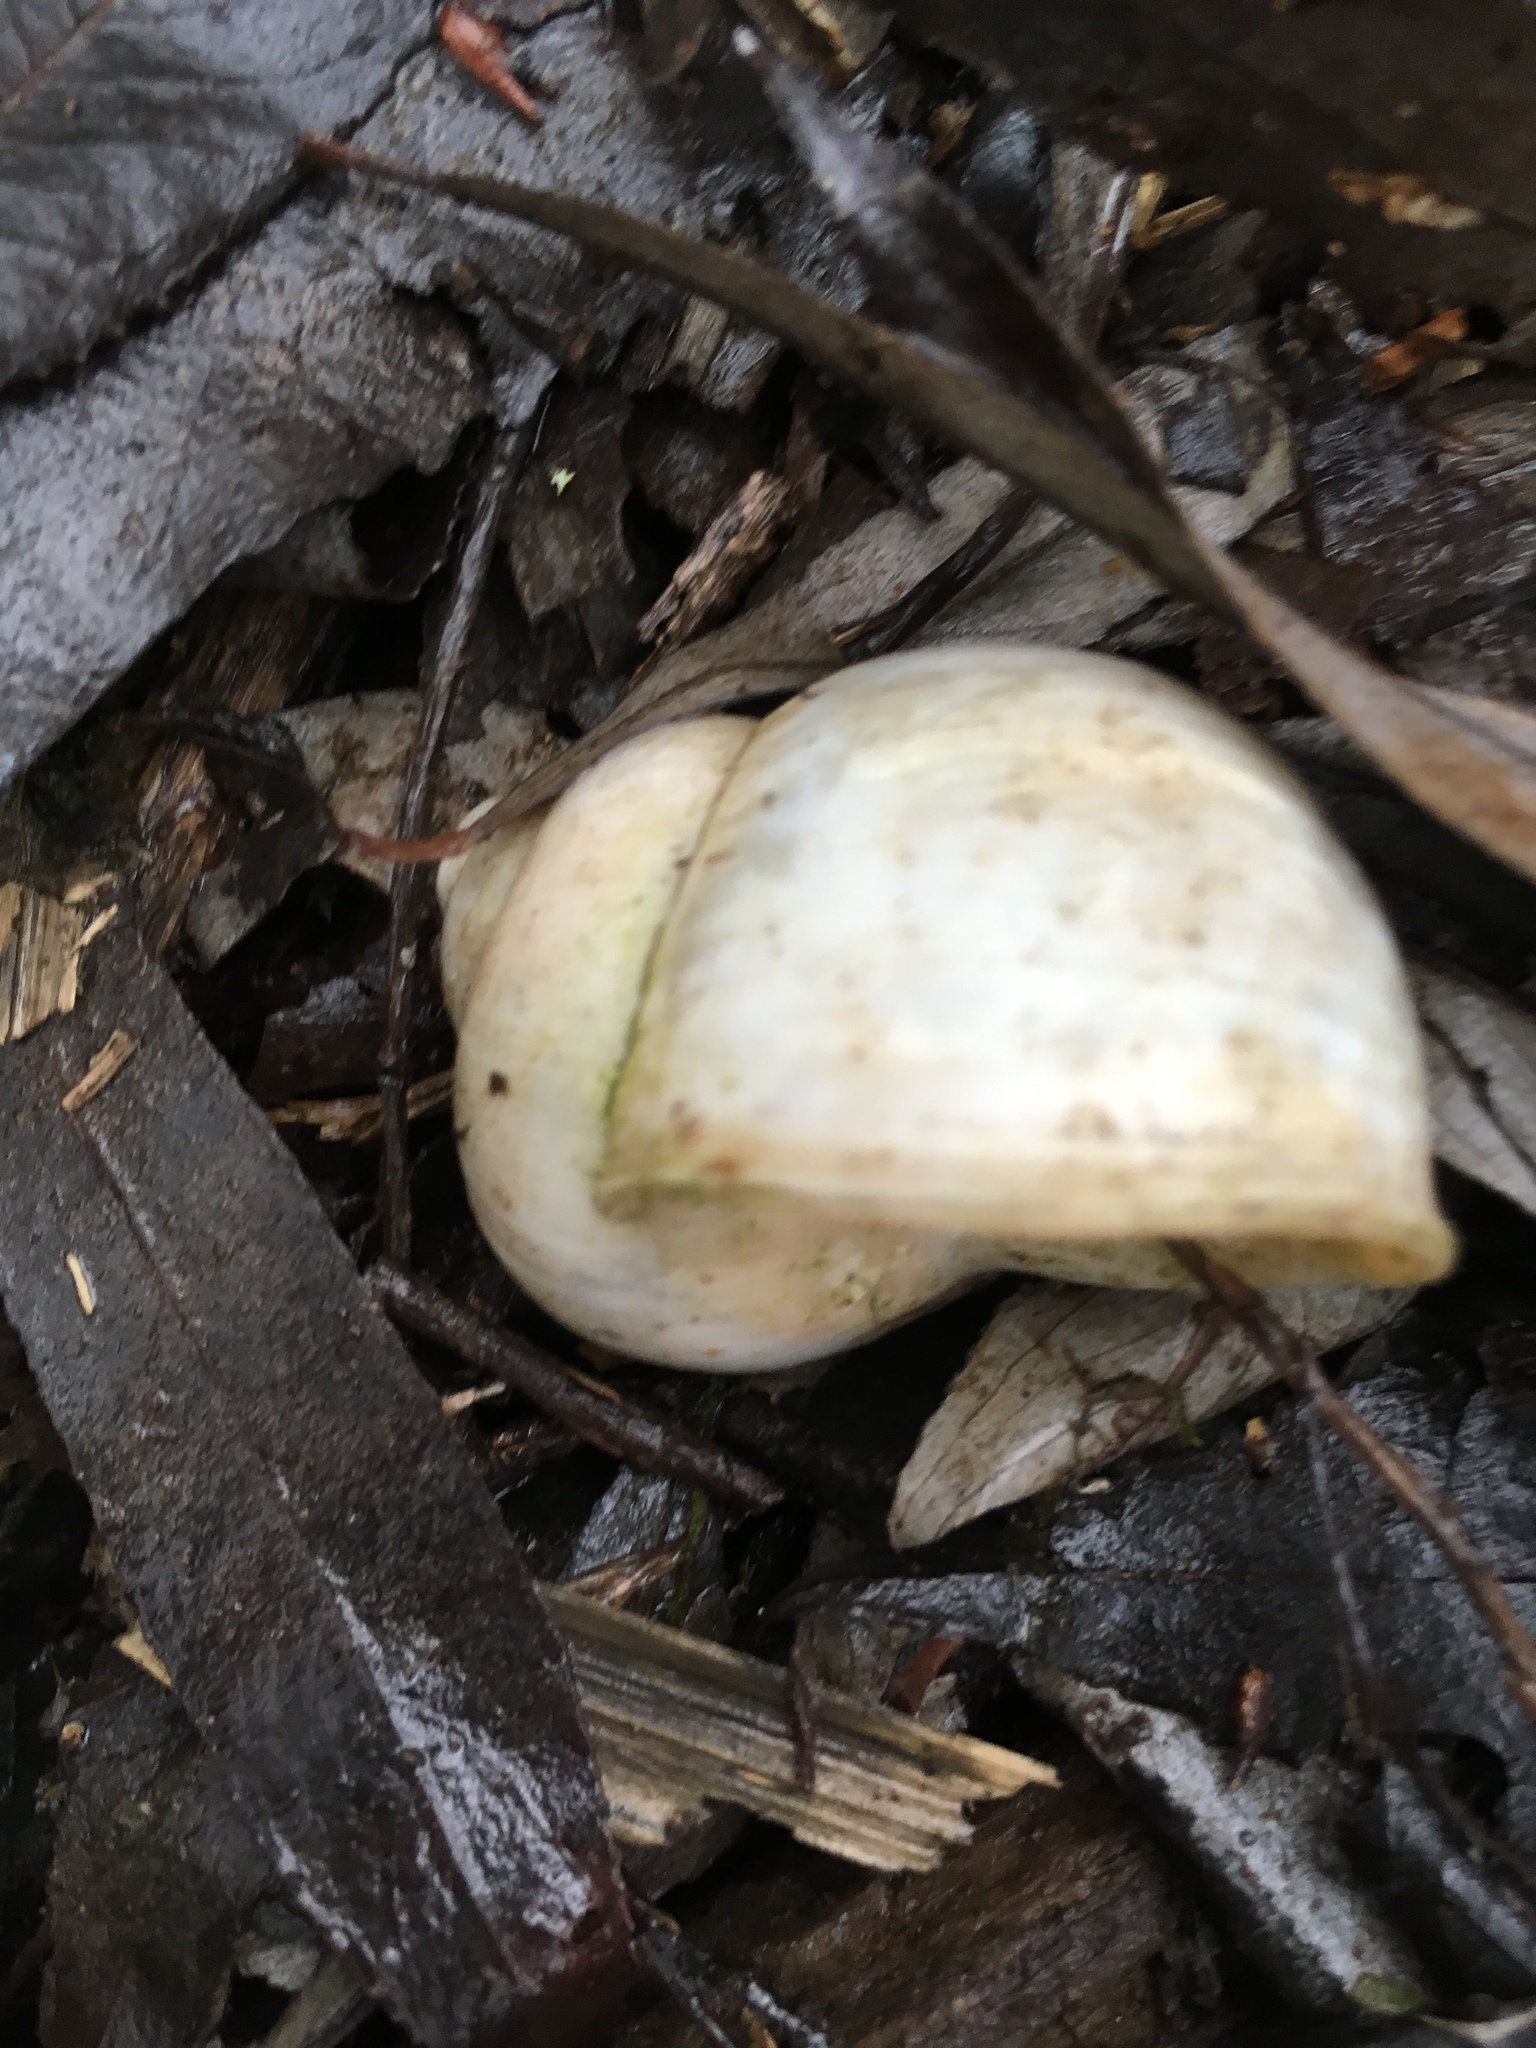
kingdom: Animalia
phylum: Mollusca
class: Gastropoda
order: Stylommatophora
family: Helicidae
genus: Helix
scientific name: Helix pomatia
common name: Roman snail
